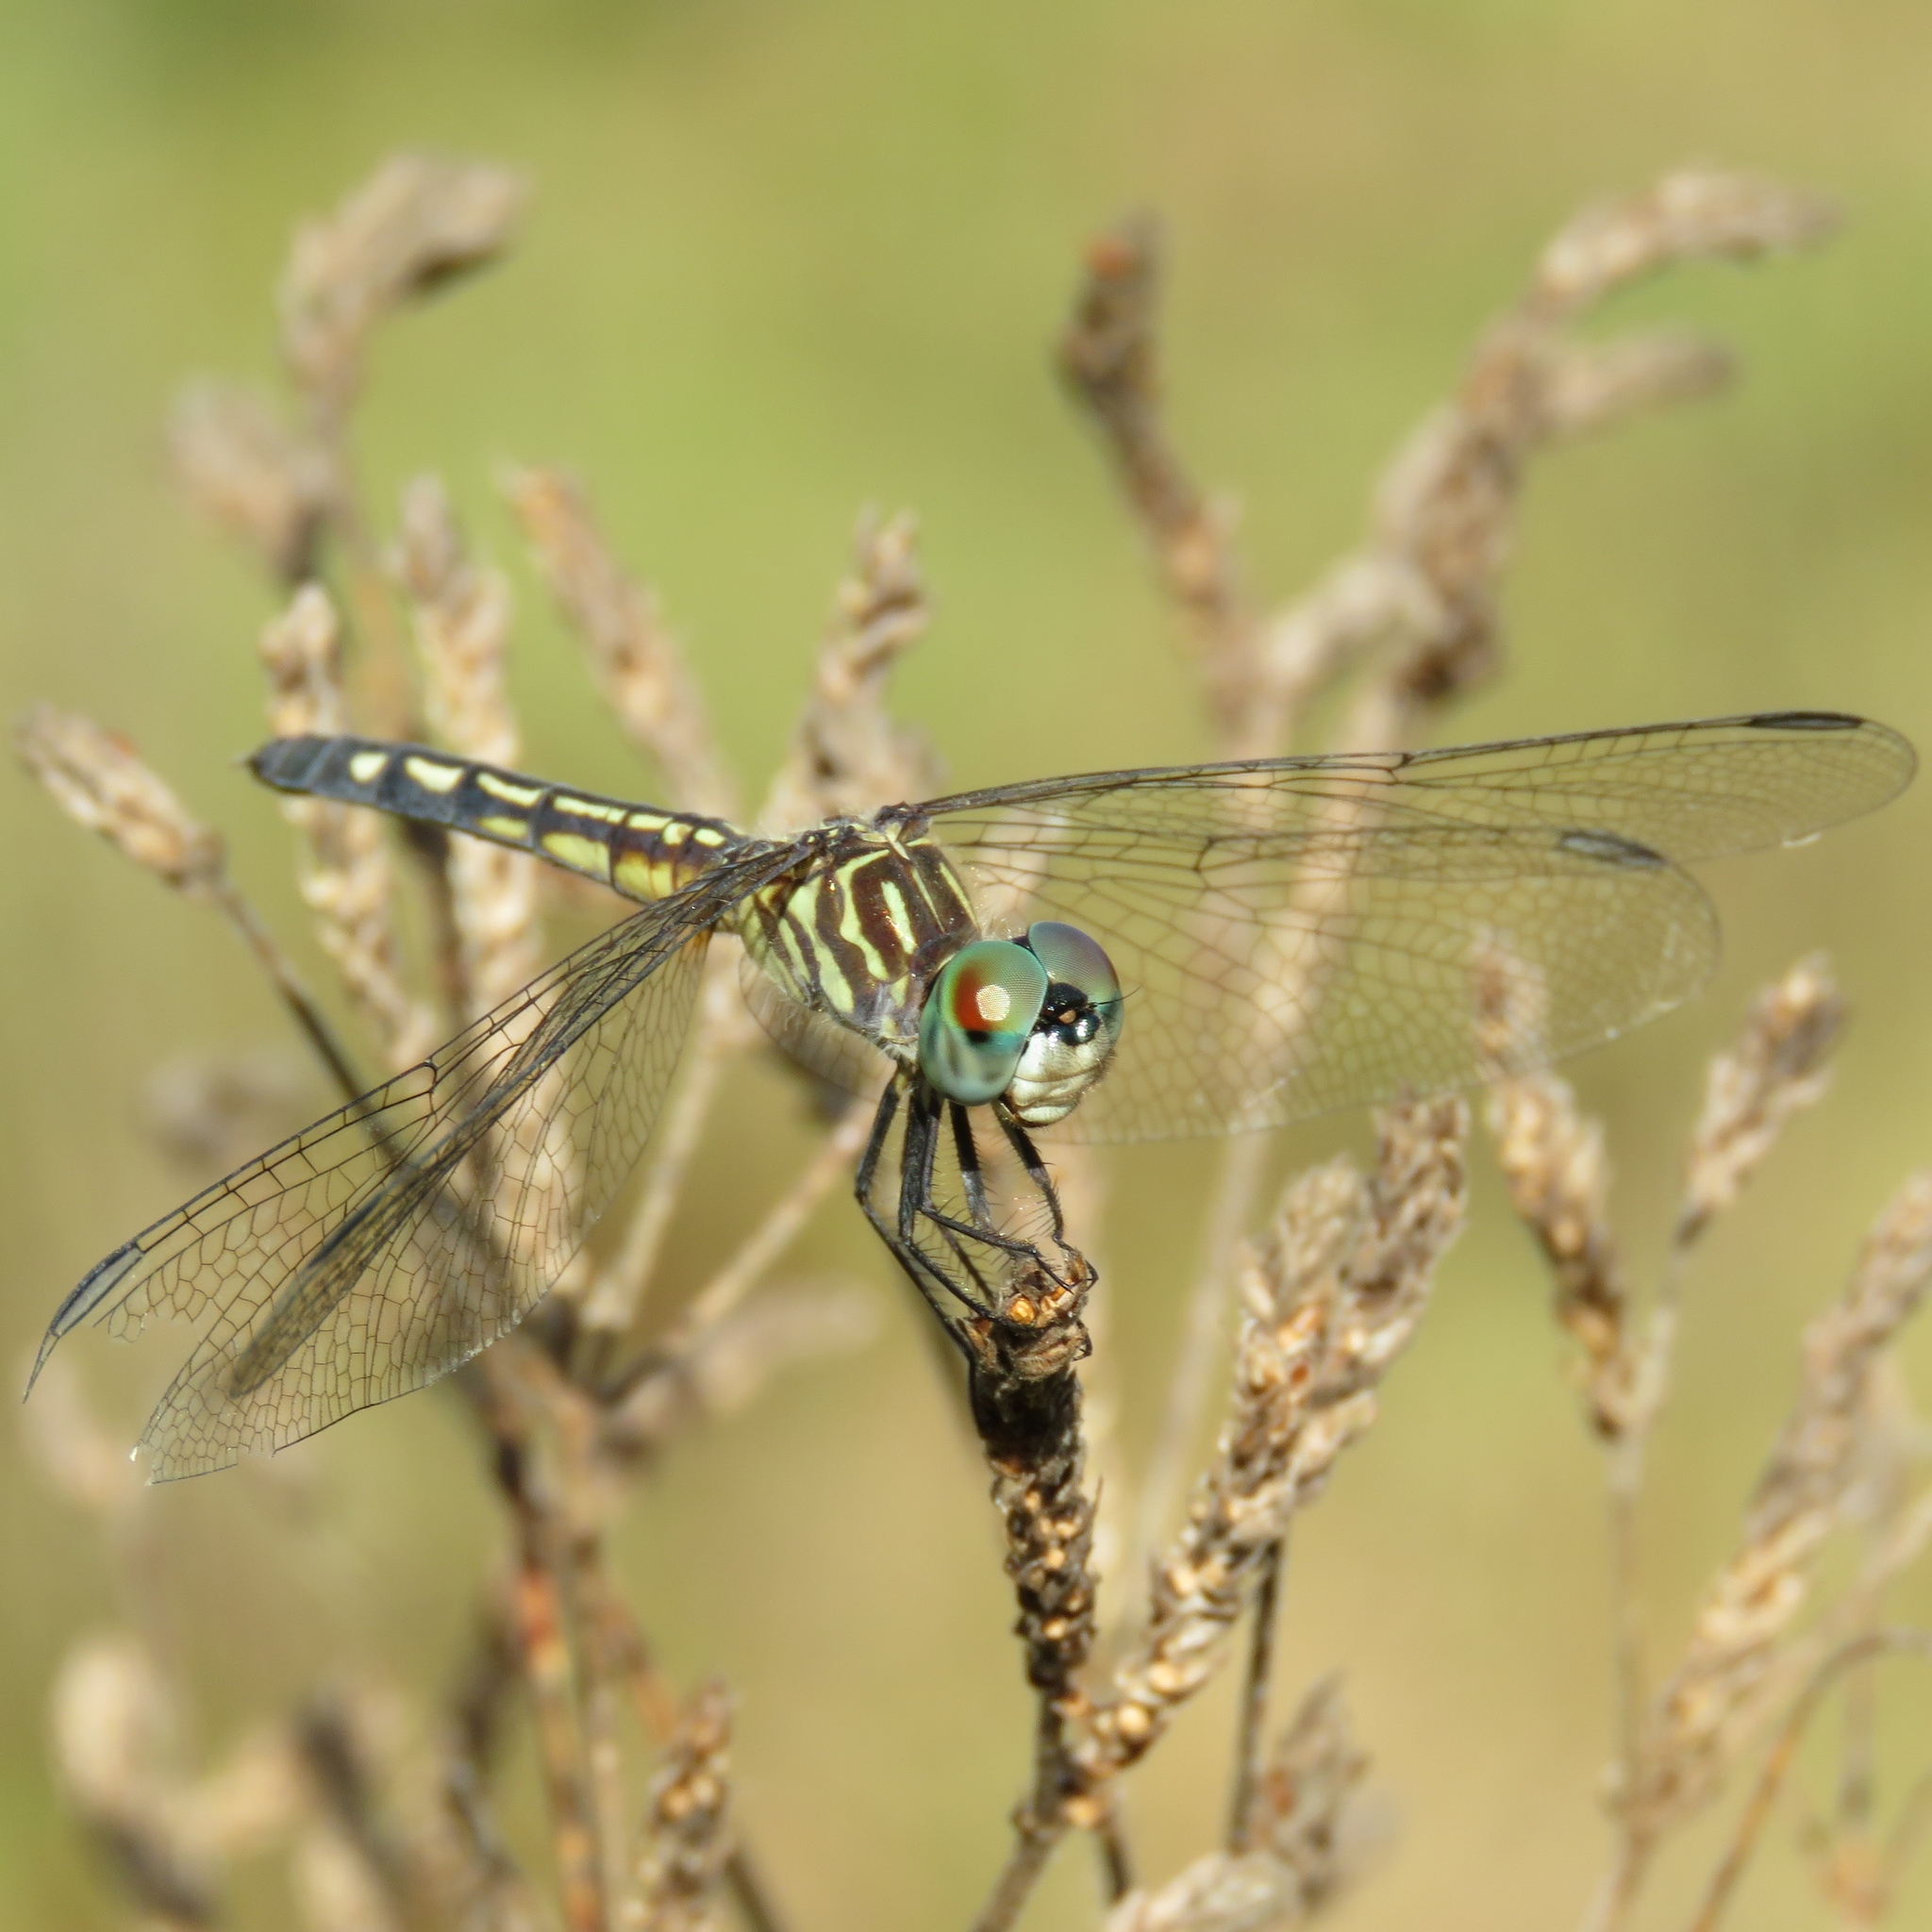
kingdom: Animalia
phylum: Arthropoda
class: Insecta
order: Odonata
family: Libellulidae
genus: Pachydiplax
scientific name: Pachydiplax longipennis
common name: Blue dasher
